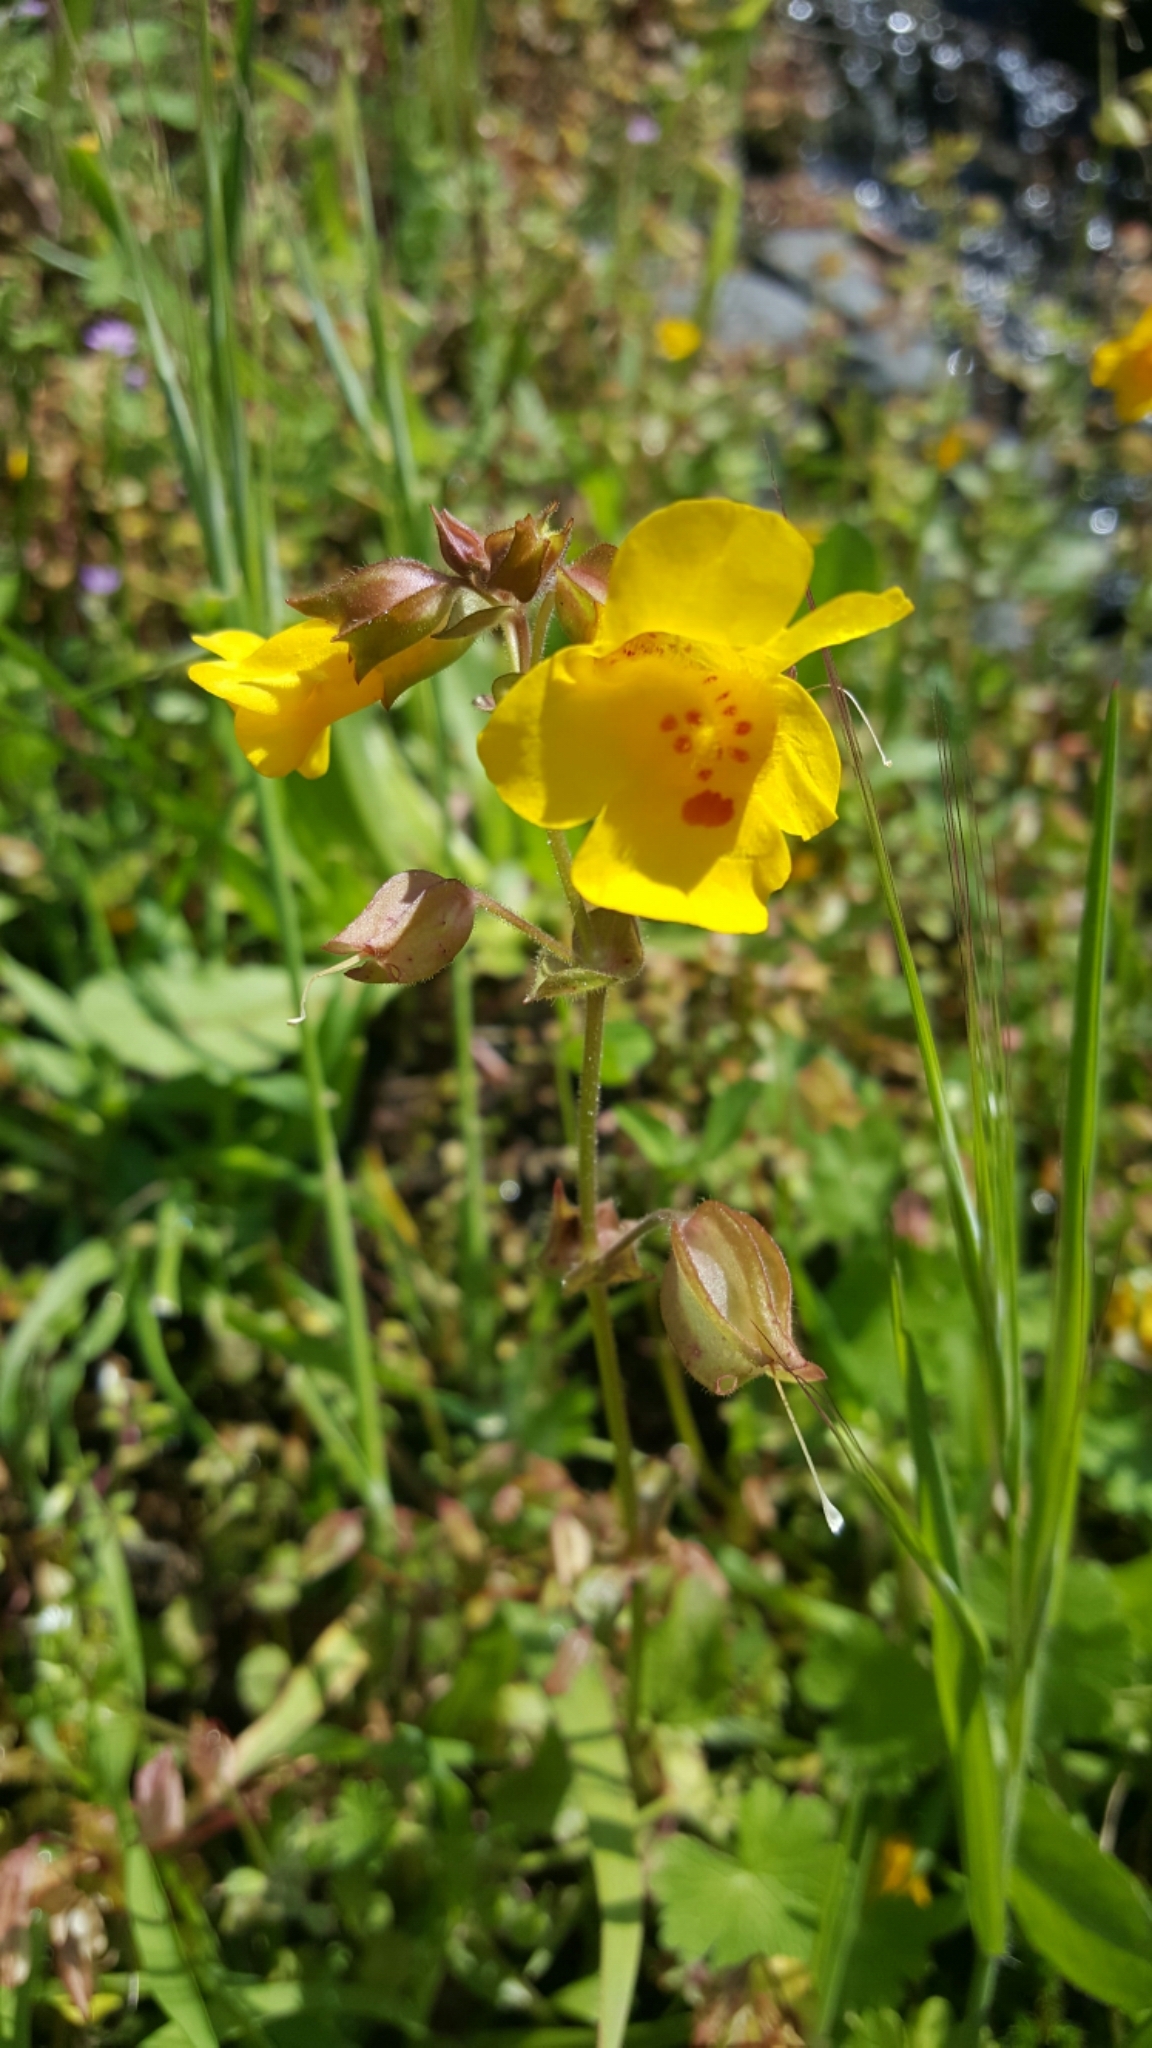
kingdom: Plantae
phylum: Tracheophyta
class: Magnoliopsida
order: Lamiales
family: Phrymaceae
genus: Erythranthe
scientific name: Erythranthe guttata
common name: Monkeyflower
